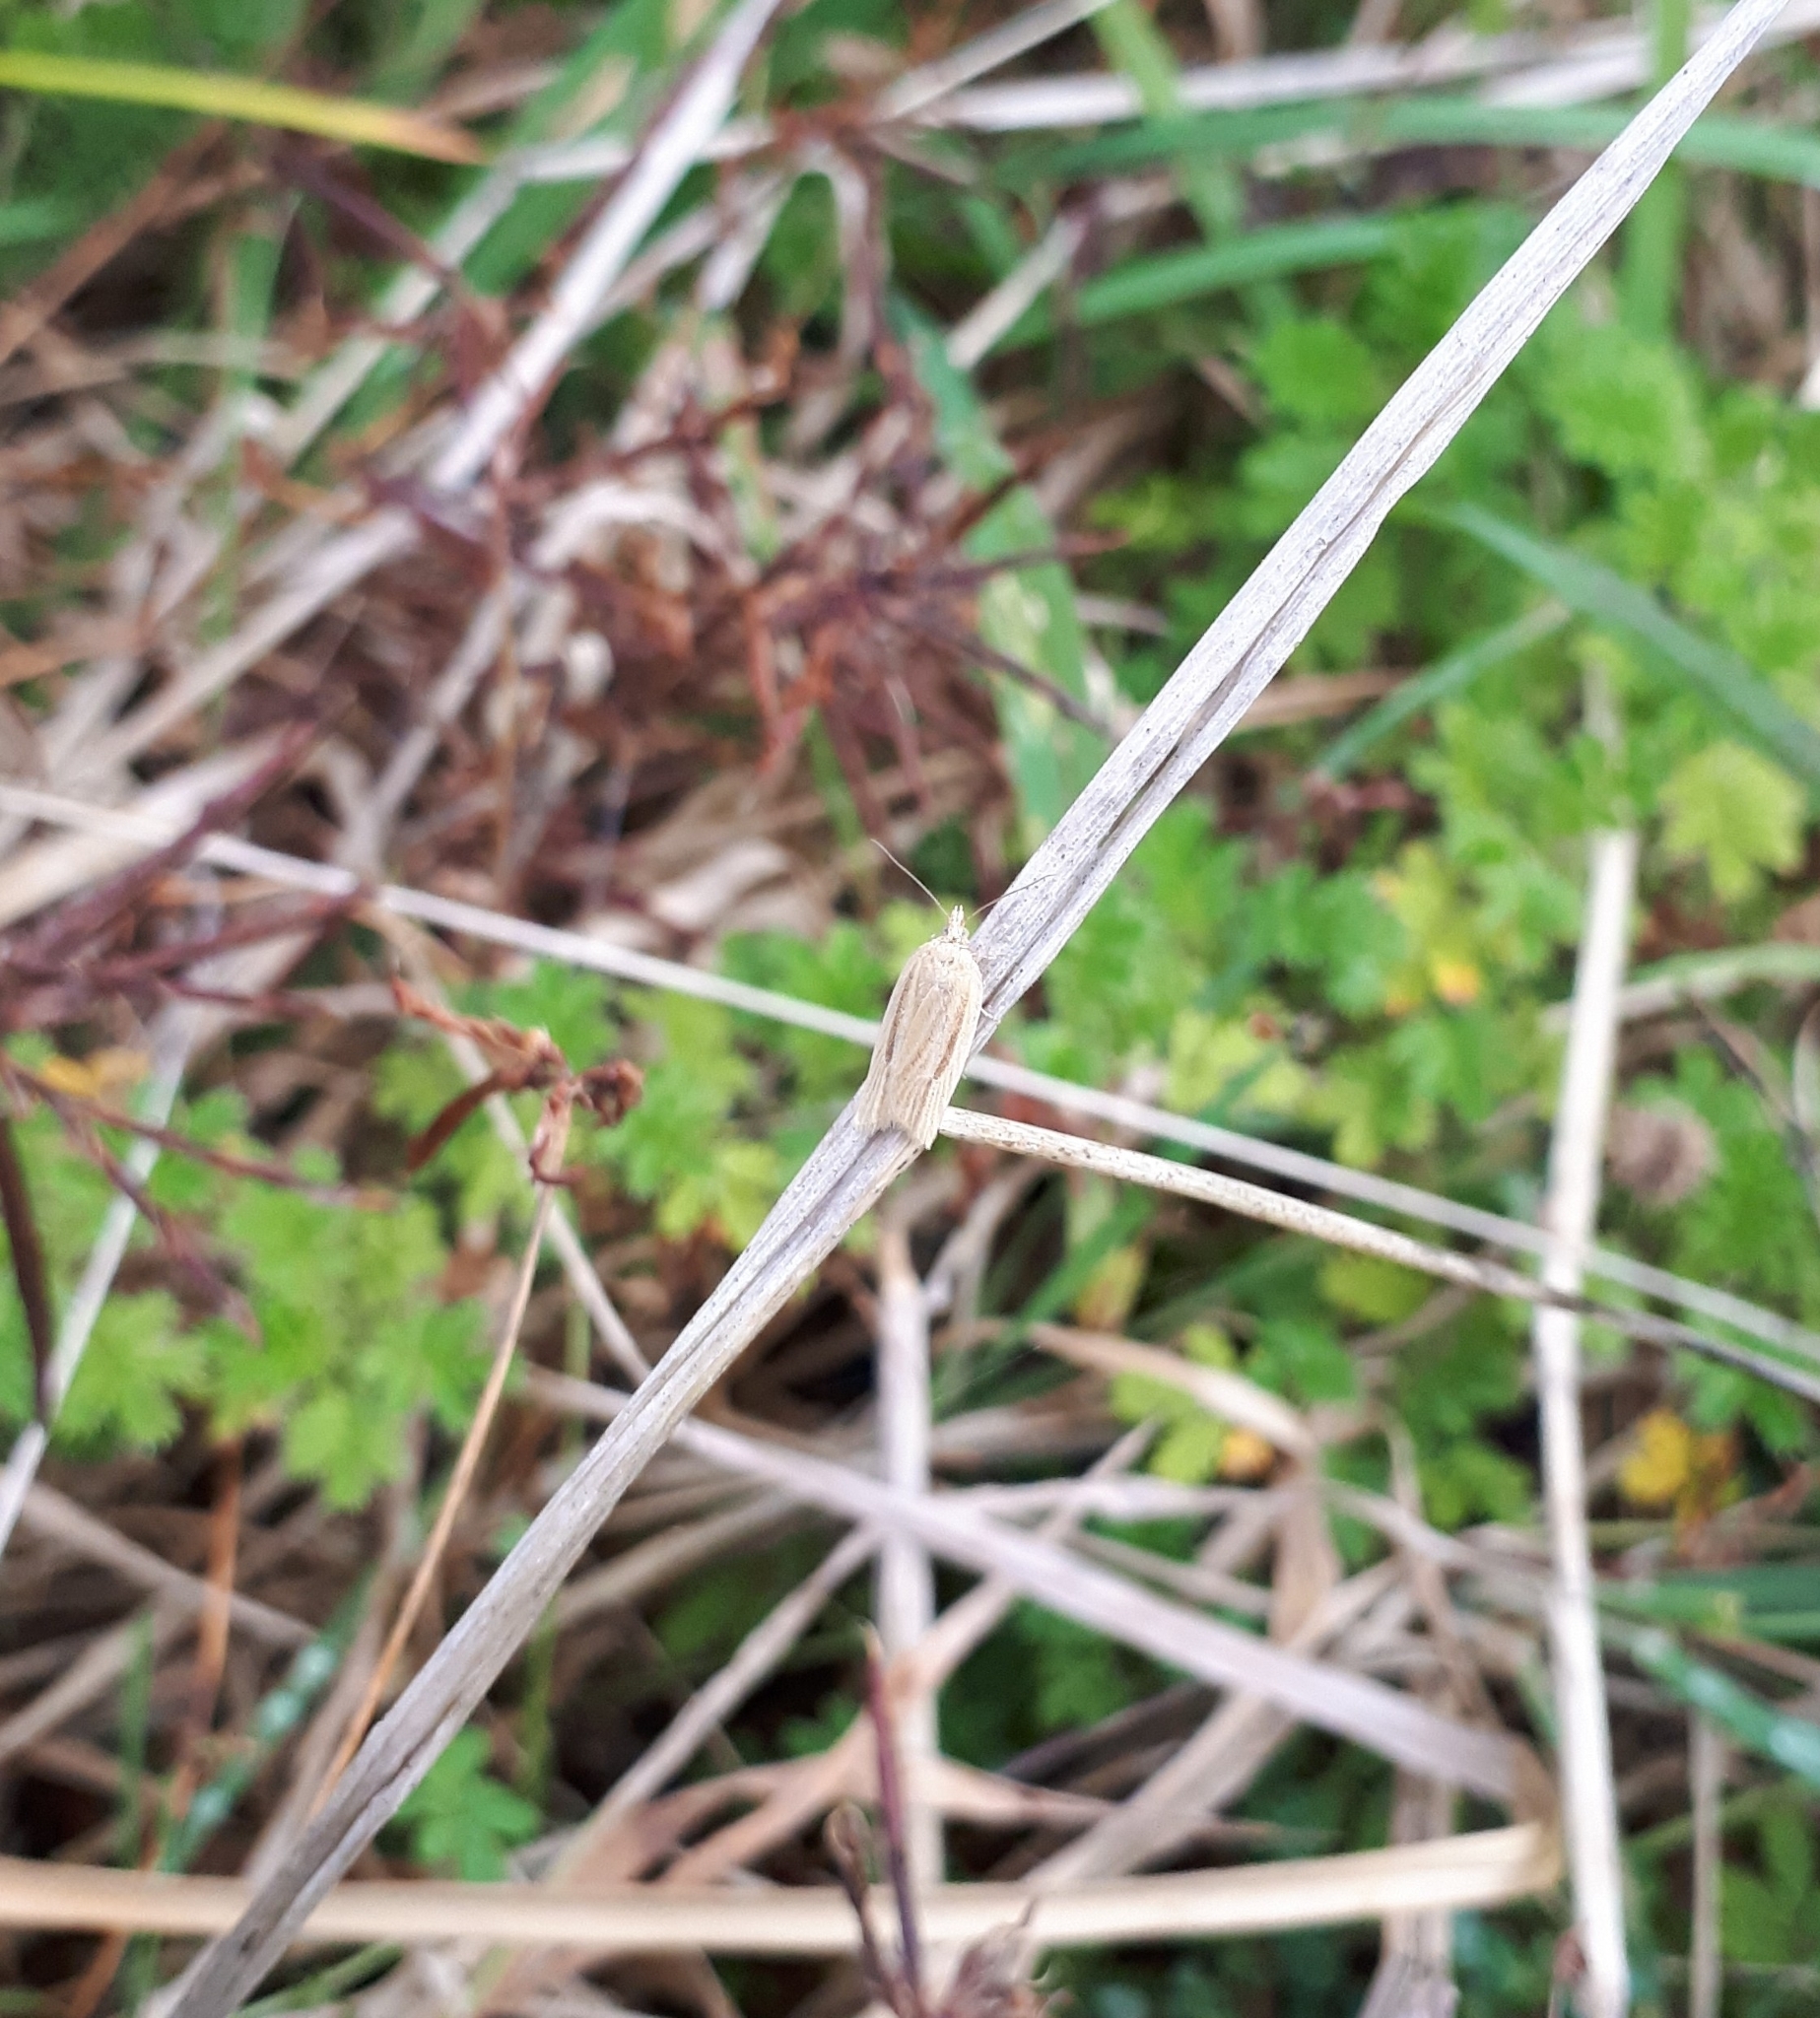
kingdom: Animalia
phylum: Arthropoda
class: Insecta
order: Lepidoptera
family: Tortricidae
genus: Clepsis
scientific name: Clepsis
